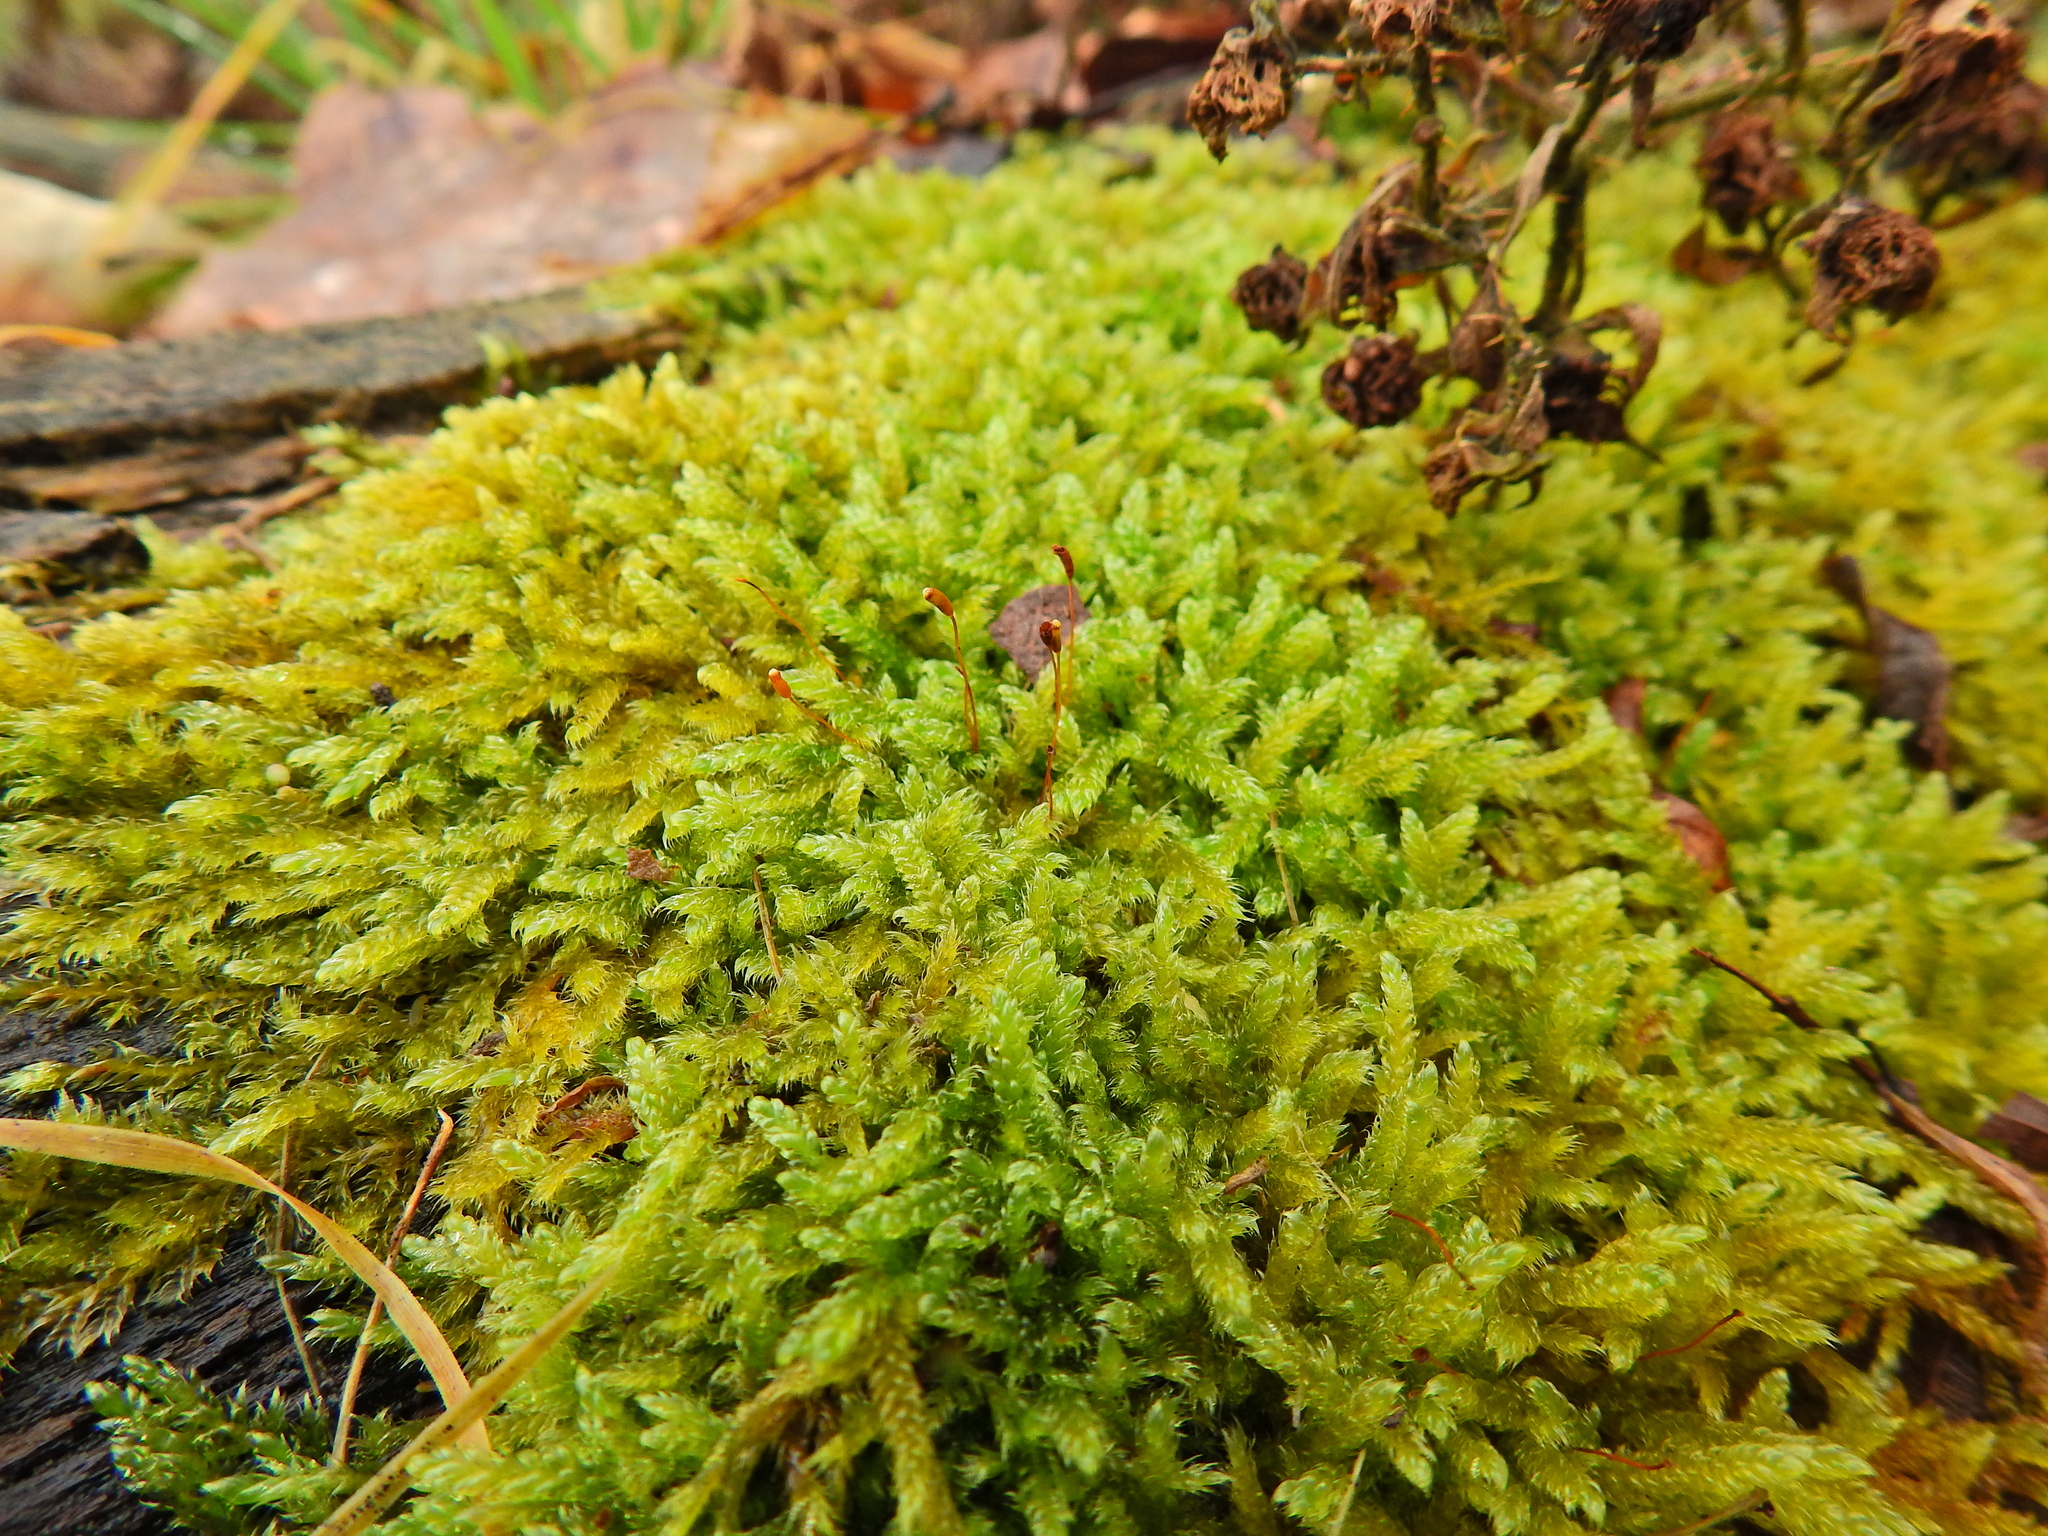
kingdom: Plantae
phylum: Bryophyta
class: Bryopsida
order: Hypnales
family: Hypnaceae
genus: Hypnum
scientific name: Hypnum cupressiforme
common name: Cypress-leaved plait-moss
